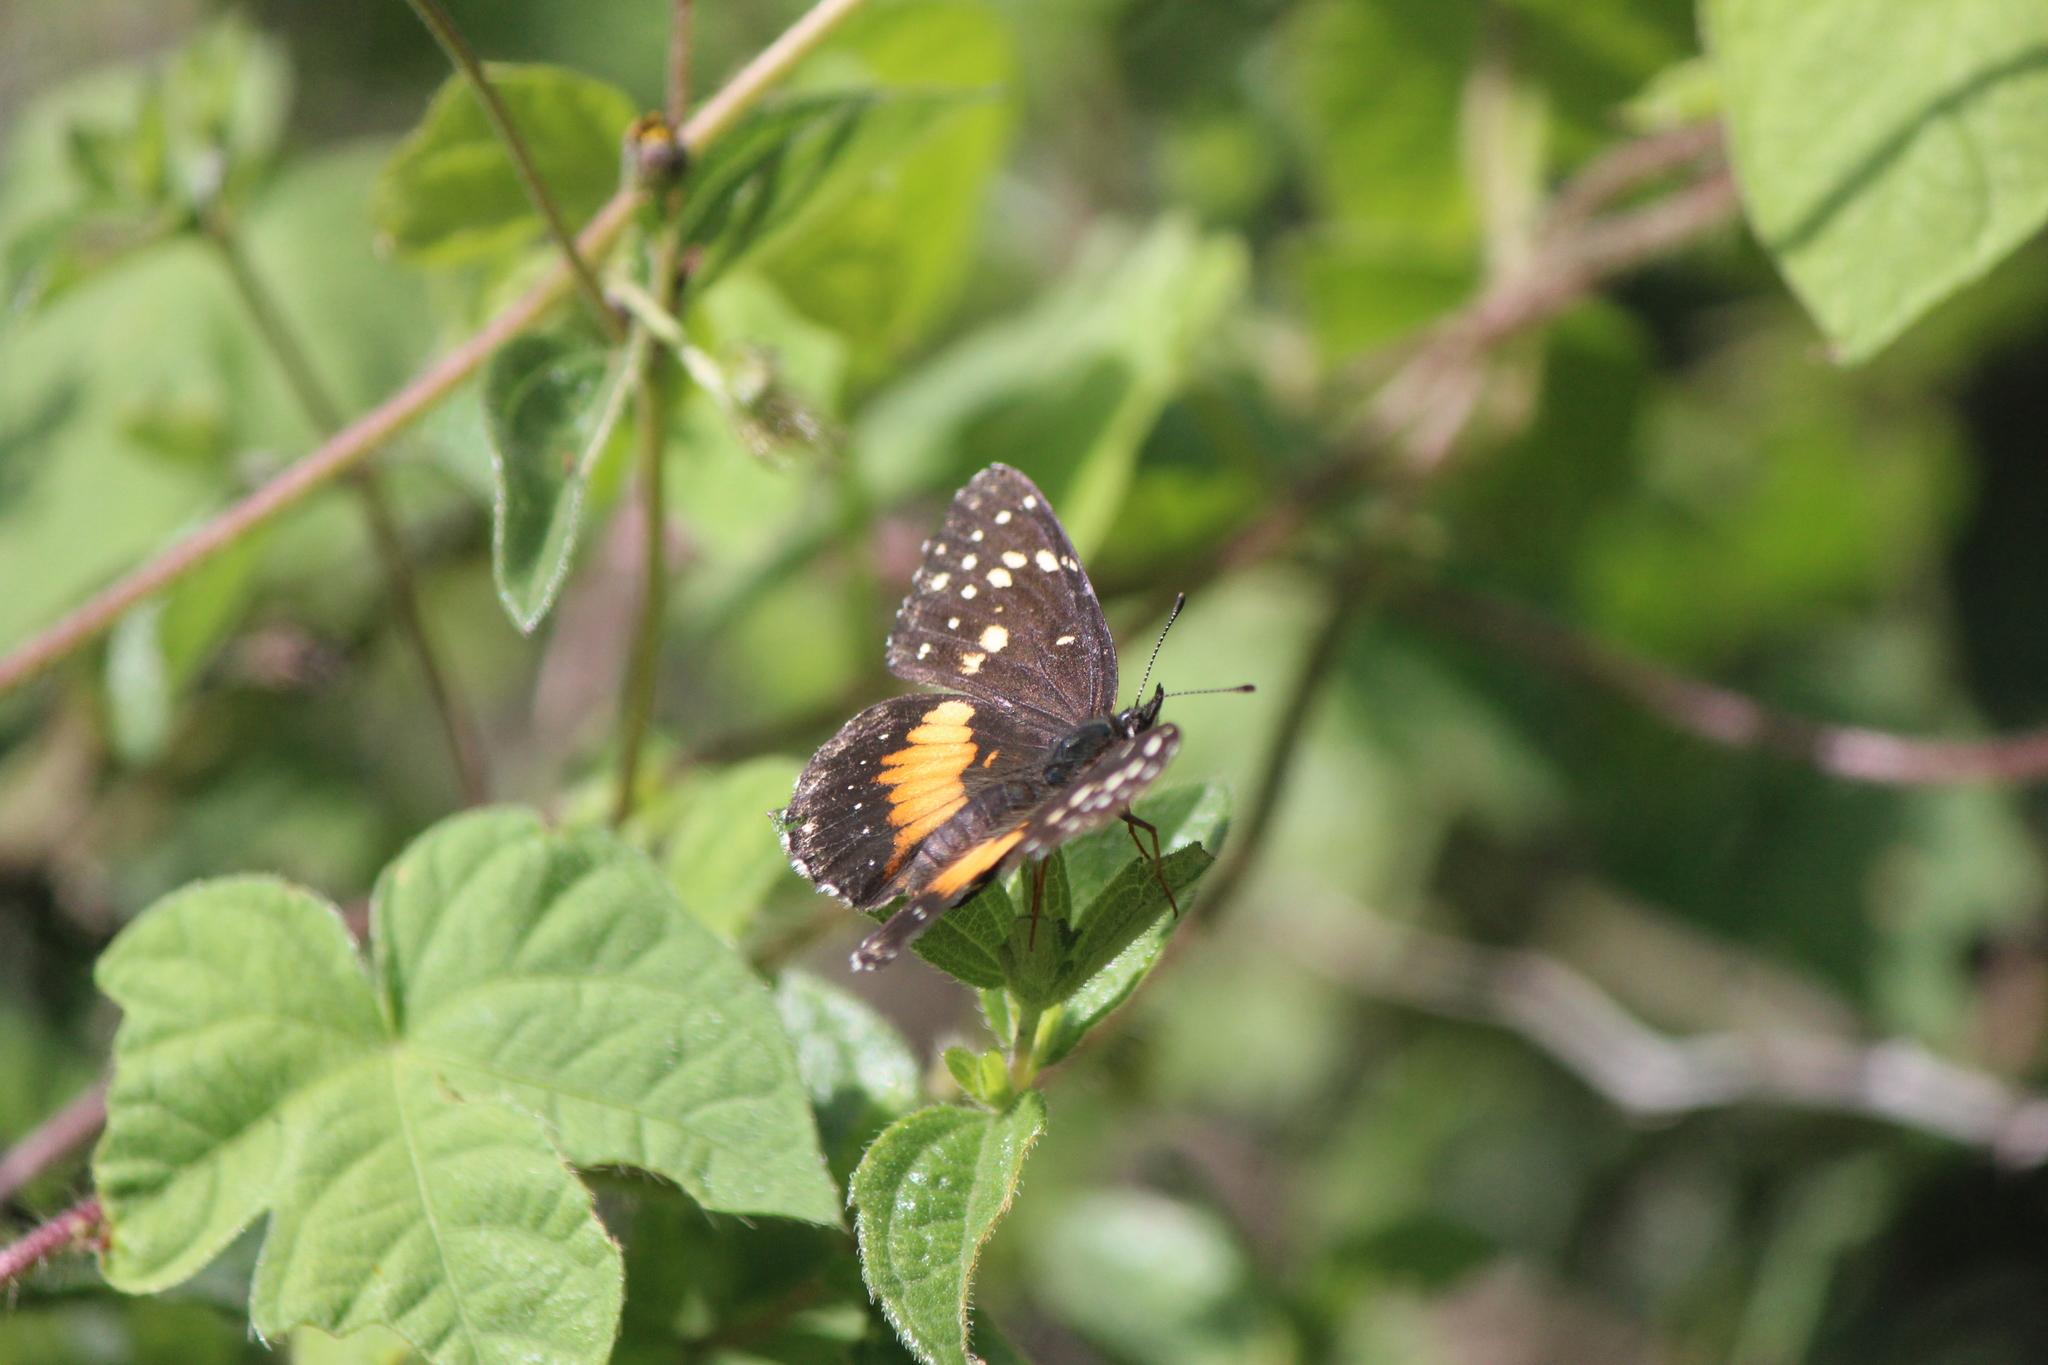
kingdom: Animalia
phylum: Arthropoda
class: Insecta
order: Lepidoptera
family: Nymphalidae
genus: Chlosyne
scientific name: Chlosyne lacinia
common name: Bordered patch
